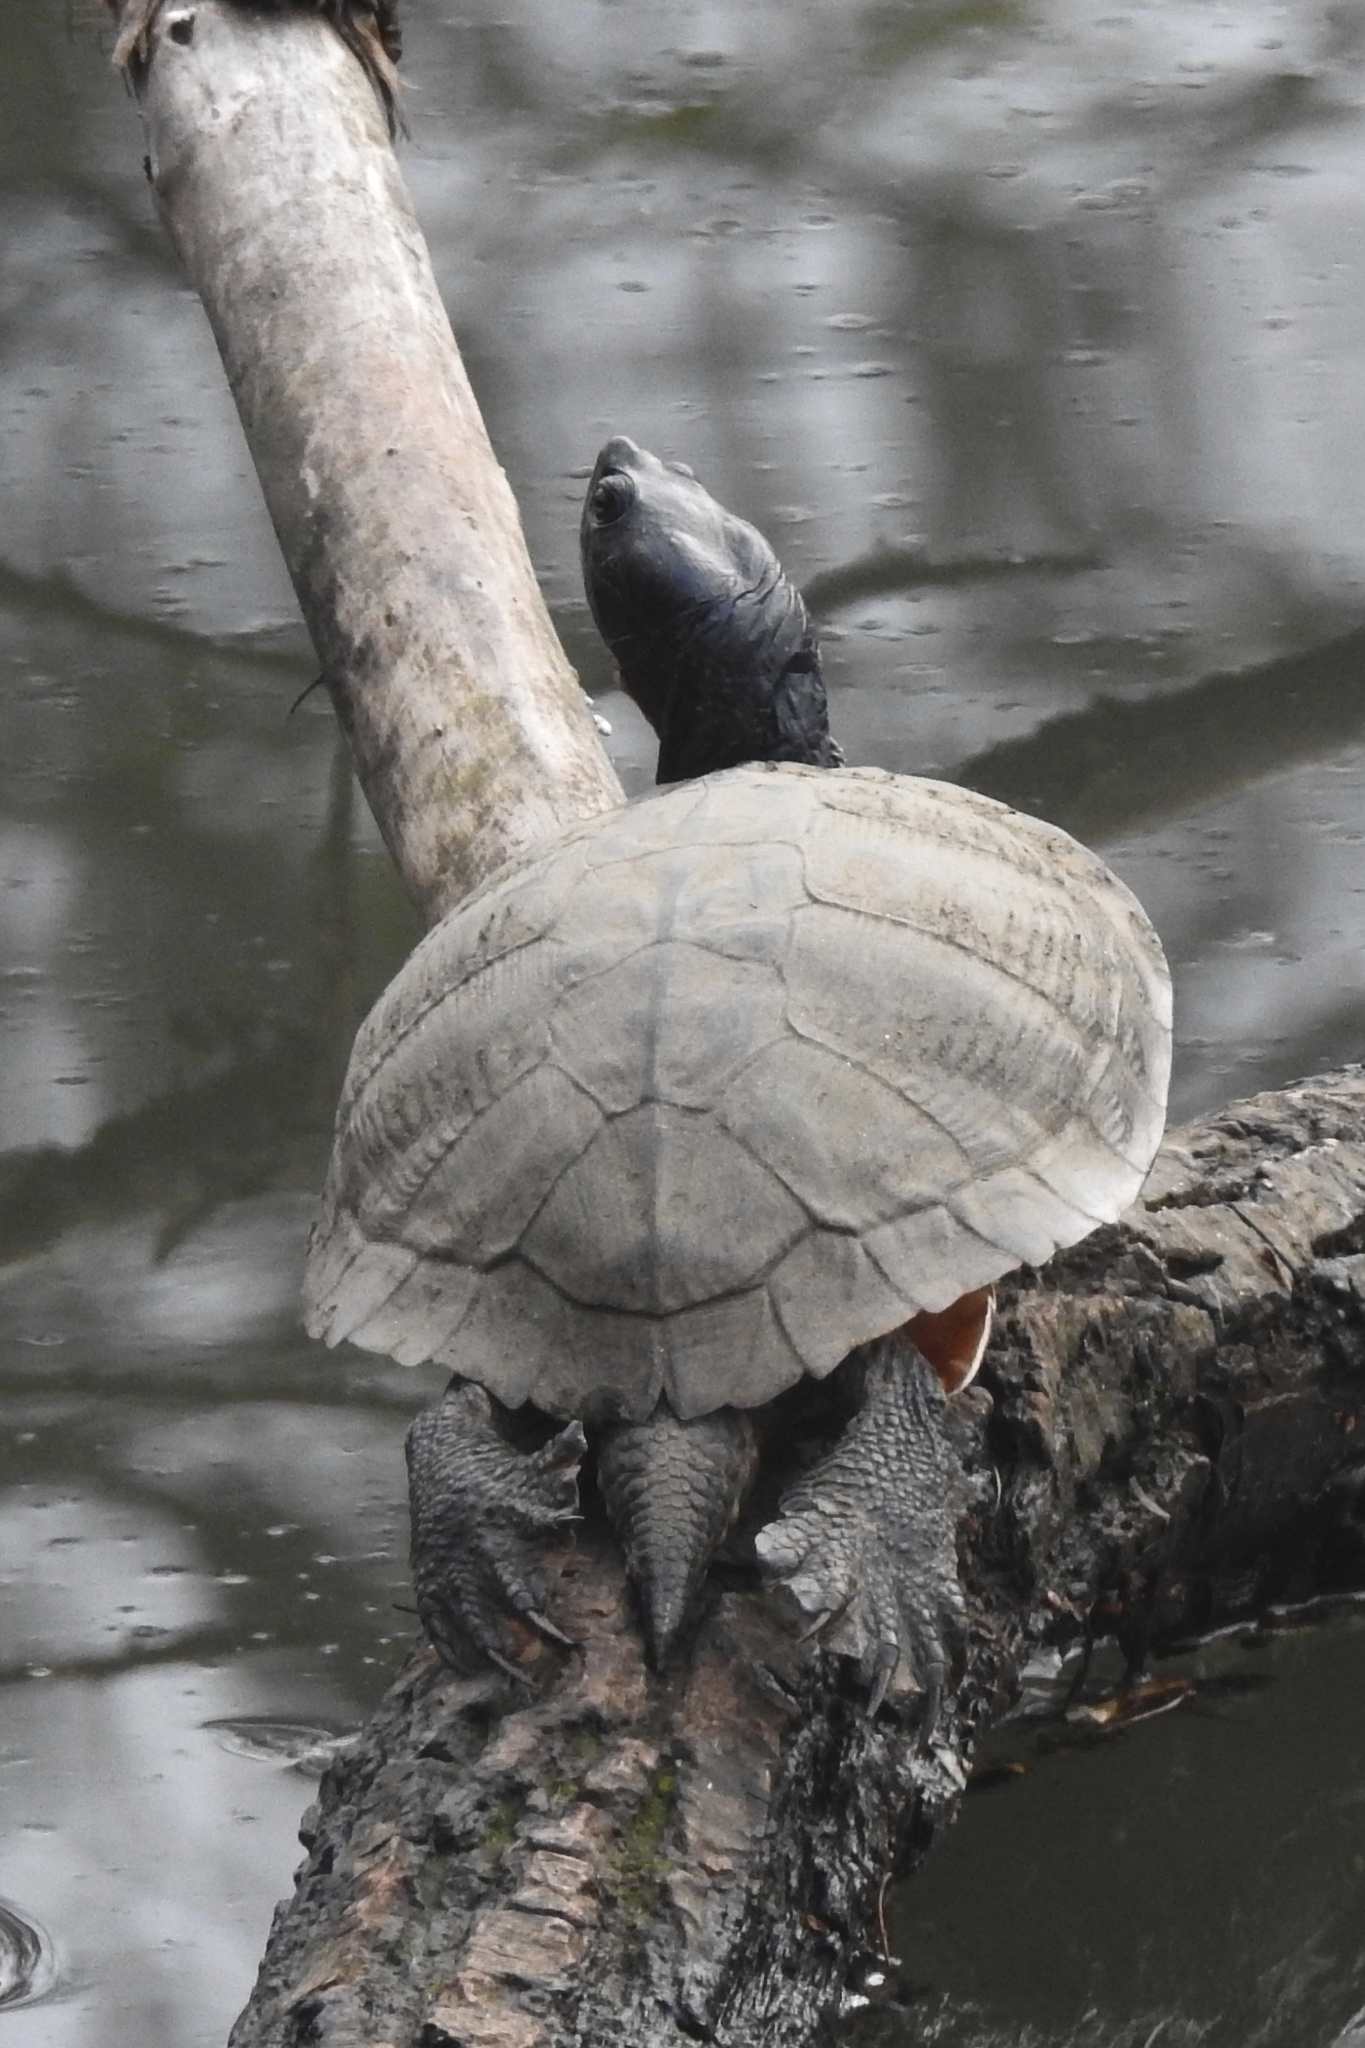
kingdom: Animalia
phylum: Chordata
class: Testudines
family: Emydidae
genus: Pseudemys
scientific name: Pseudemys rubriventris
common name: American red-bellied turtle
